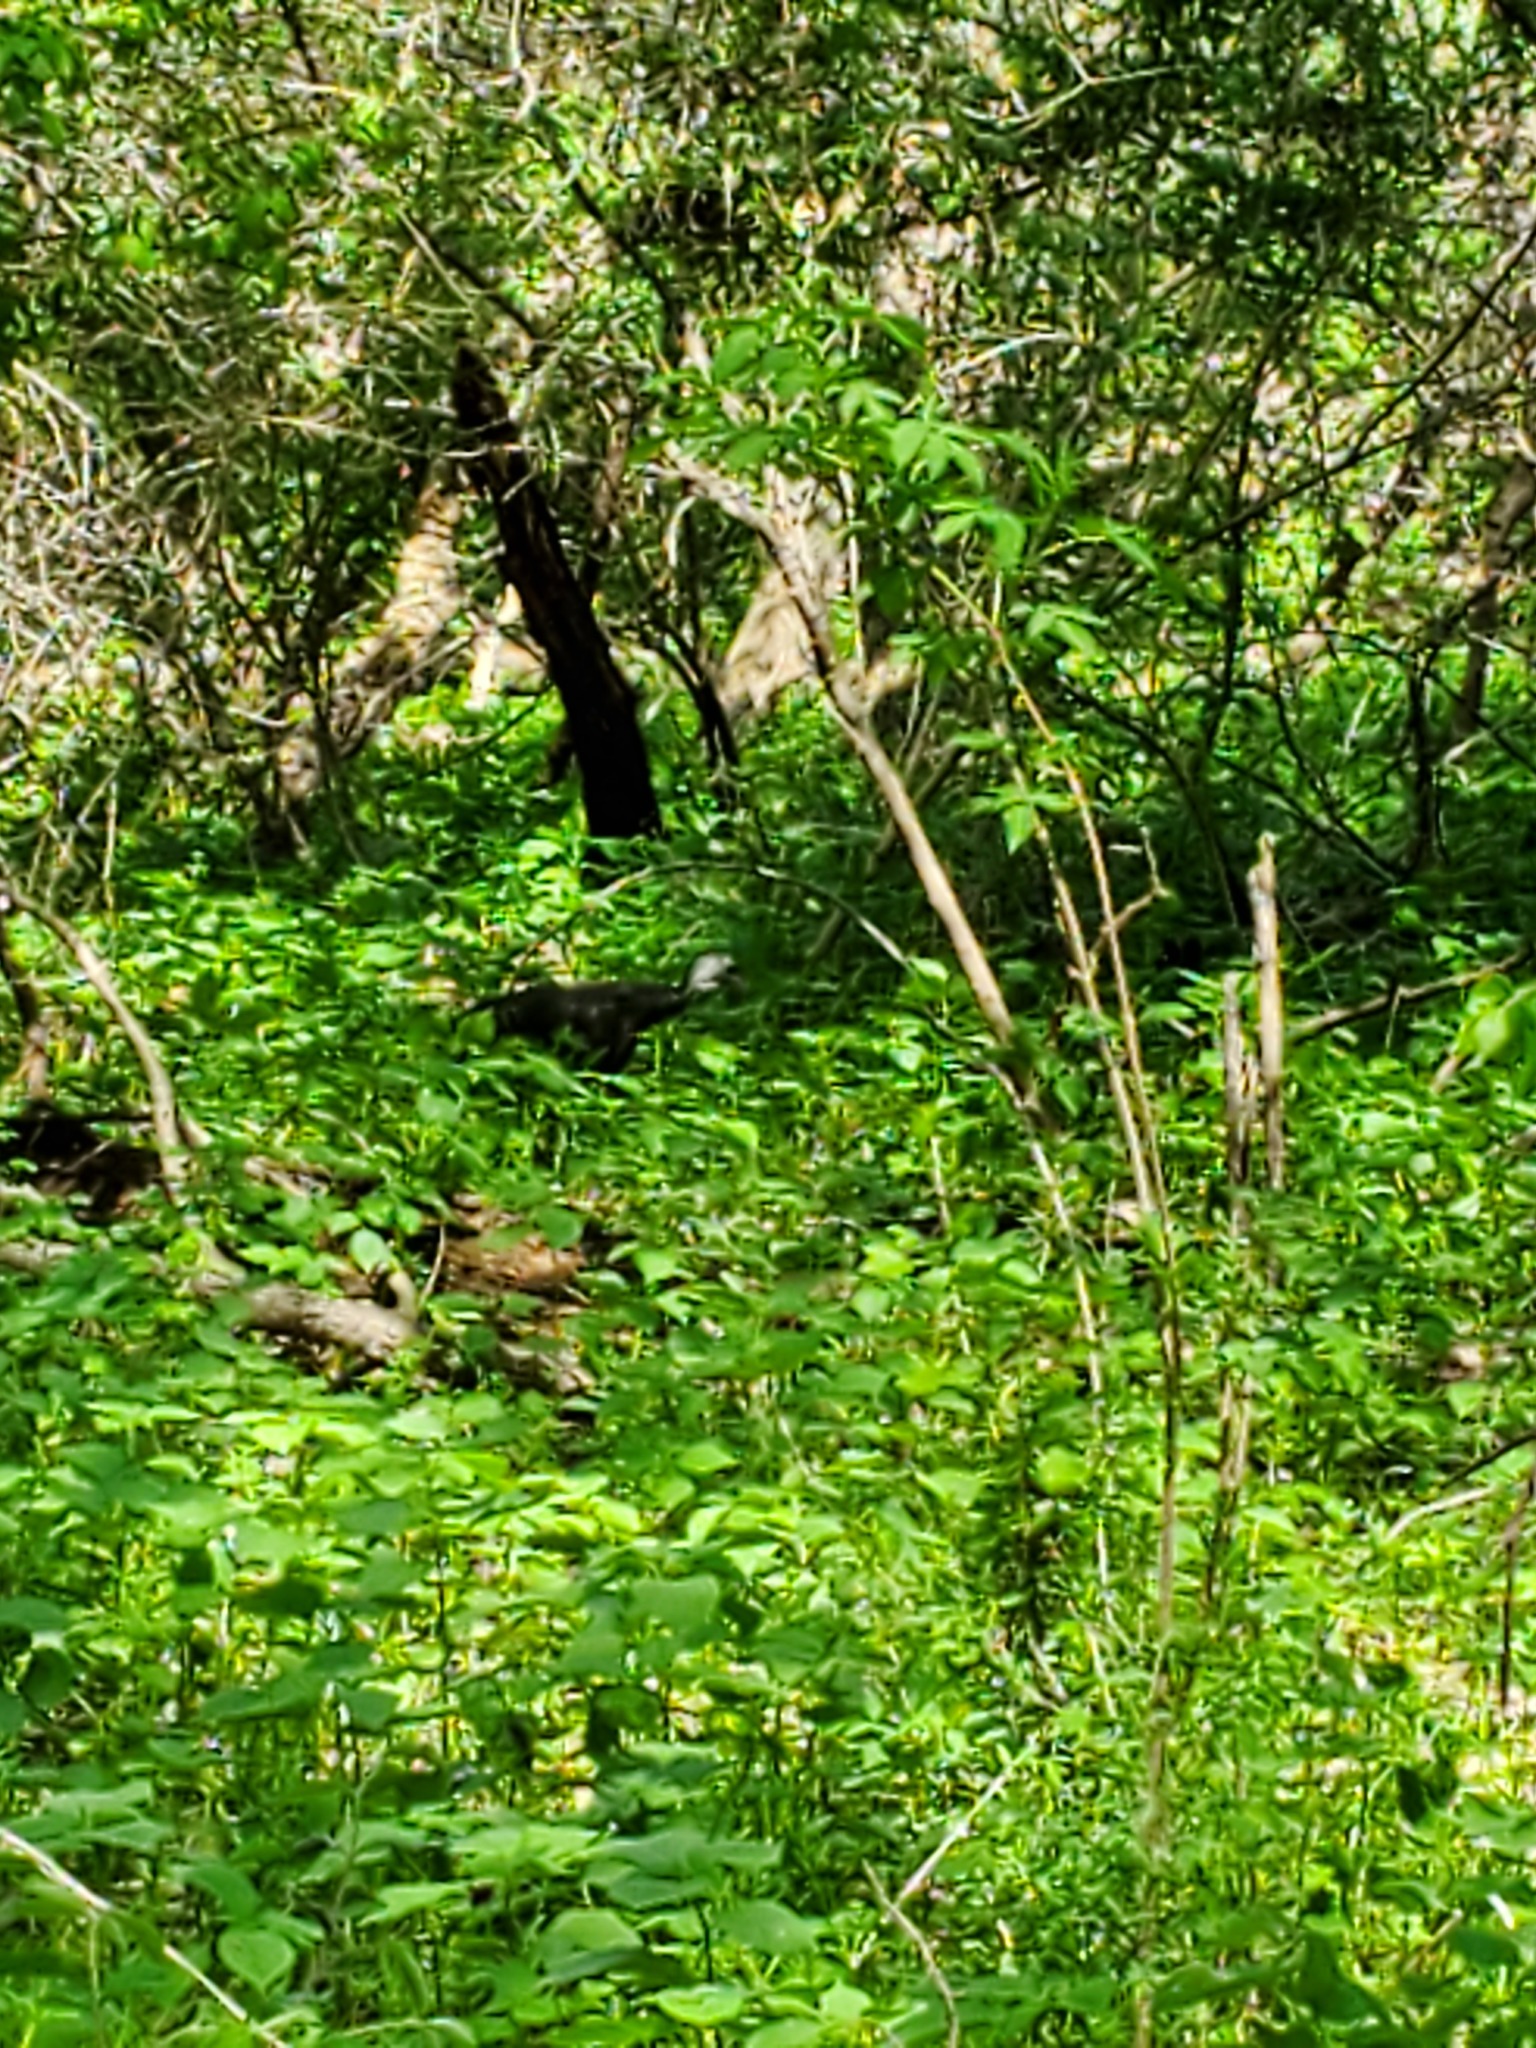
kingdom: Animalia
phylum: Chordata
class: Aves
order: Galliformes
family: Phasianidae
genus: Meleagris
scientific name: Meleagris gallopavo
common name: Wild turkey
